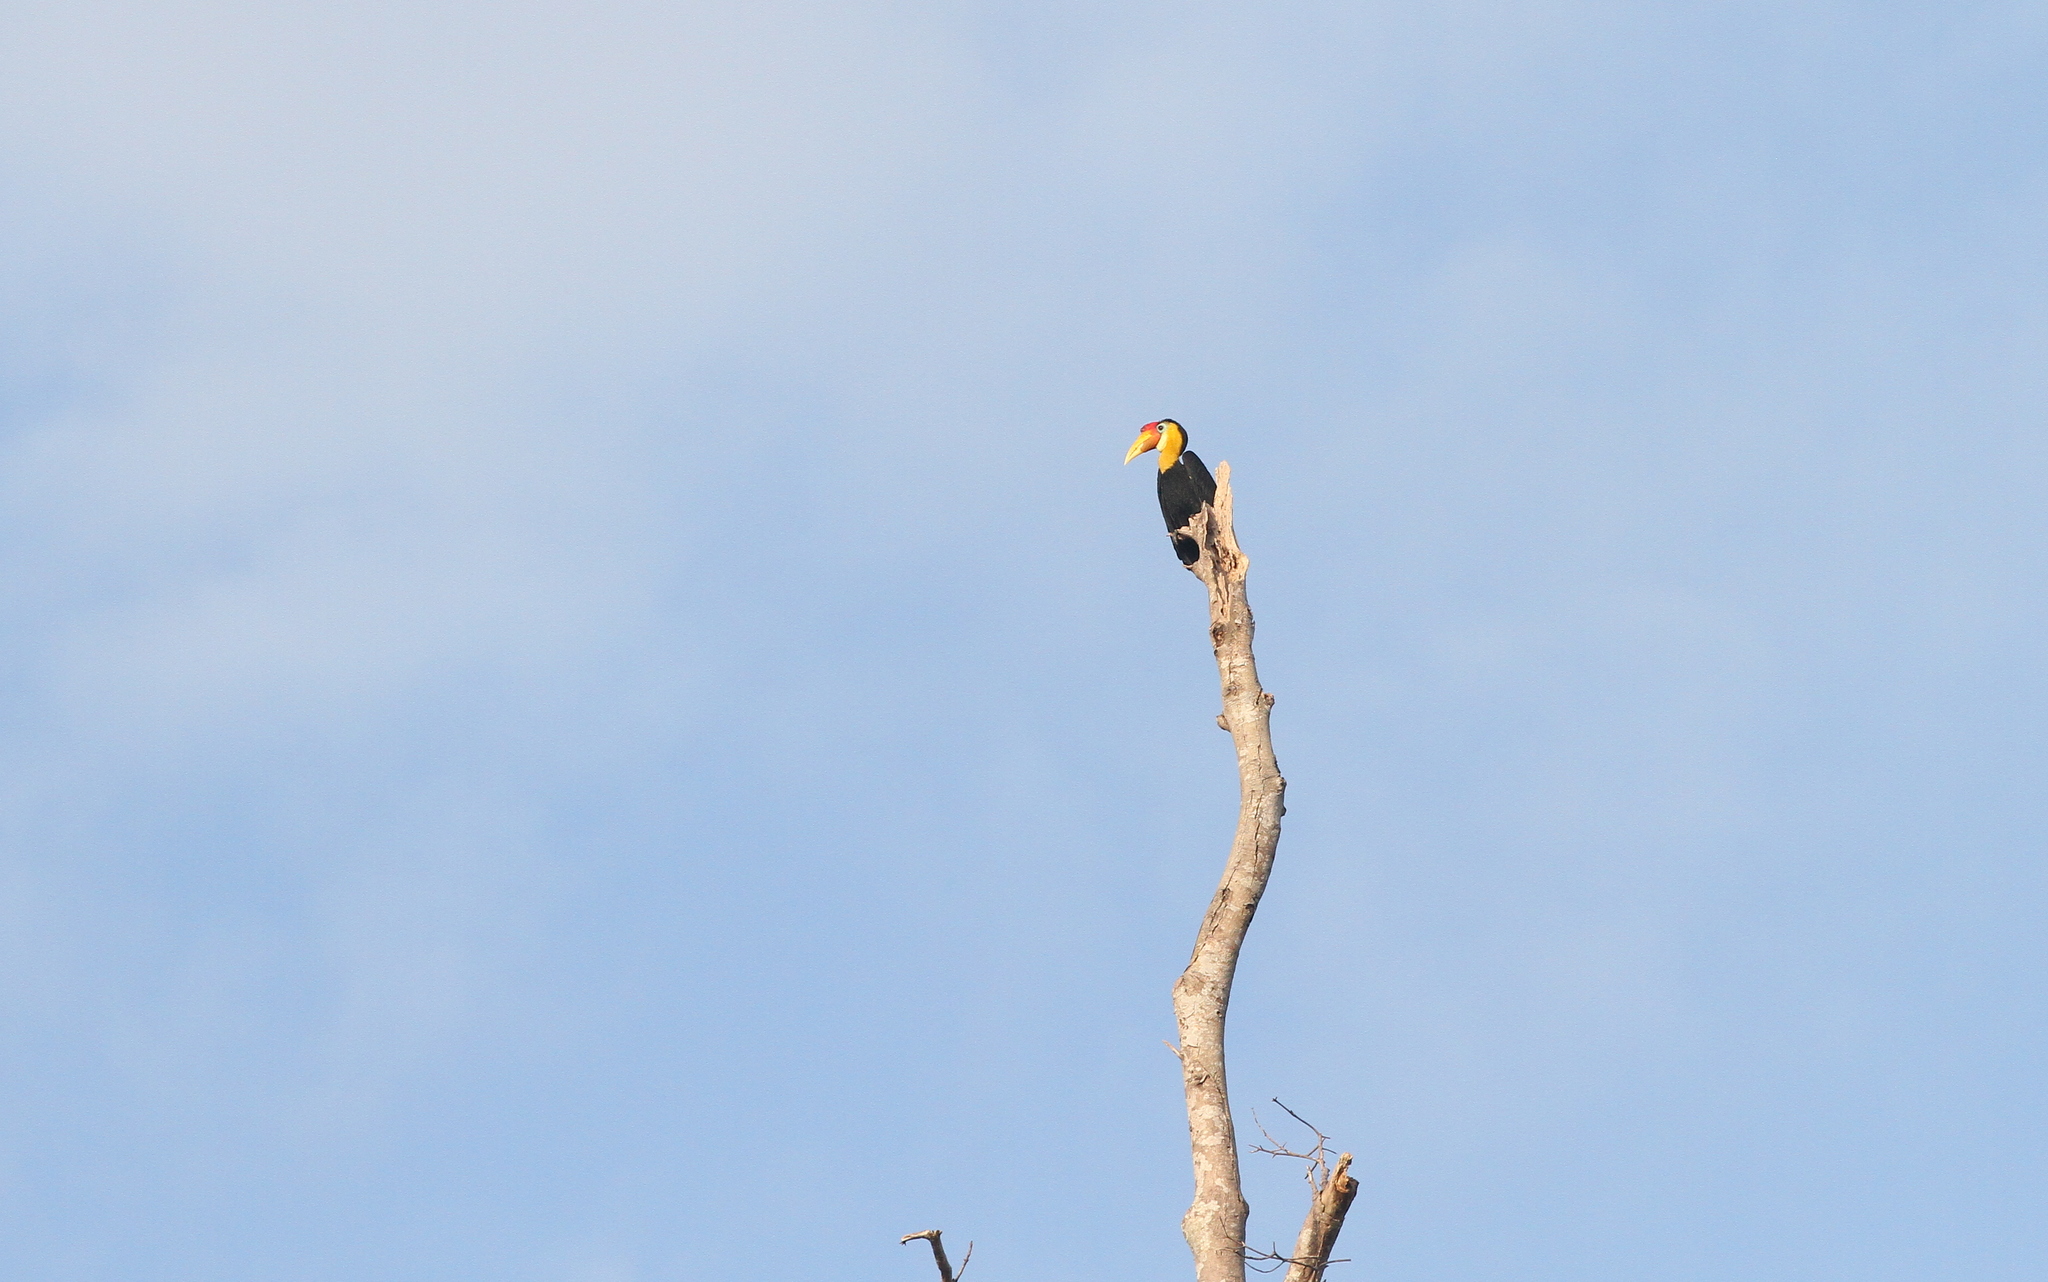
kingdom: Animalia
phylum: Chordata
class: Aves
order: Bucerotiformes
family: Bucerotidae
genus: Rhabdotorrhinus
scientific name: Rhabdotorrhinus corrugatus
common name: Wrinkled hornbill
